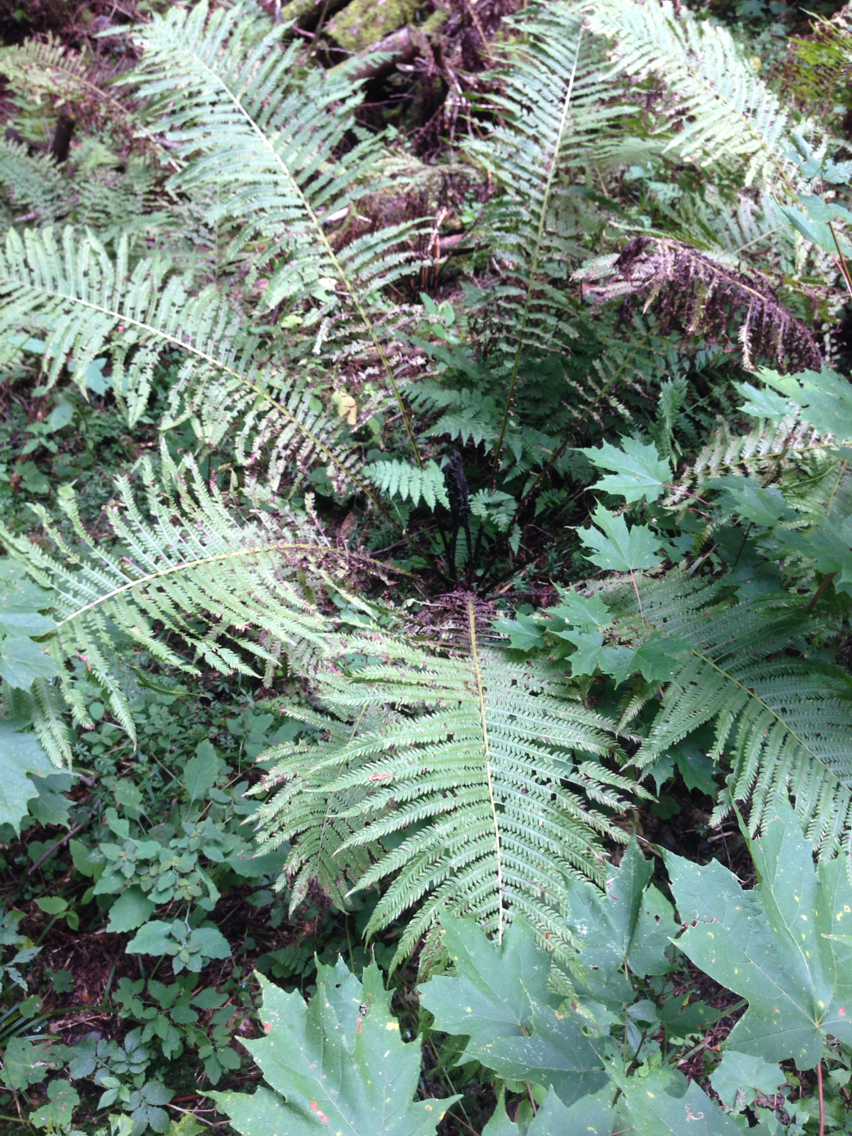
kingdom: Plantae
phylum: Tracheophyta
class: Polypodiopsida
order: Polypodiales
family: Onocleaceae
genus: Matteuccia
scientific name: Matteuccia struthiopteris
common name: Ostrich fern
